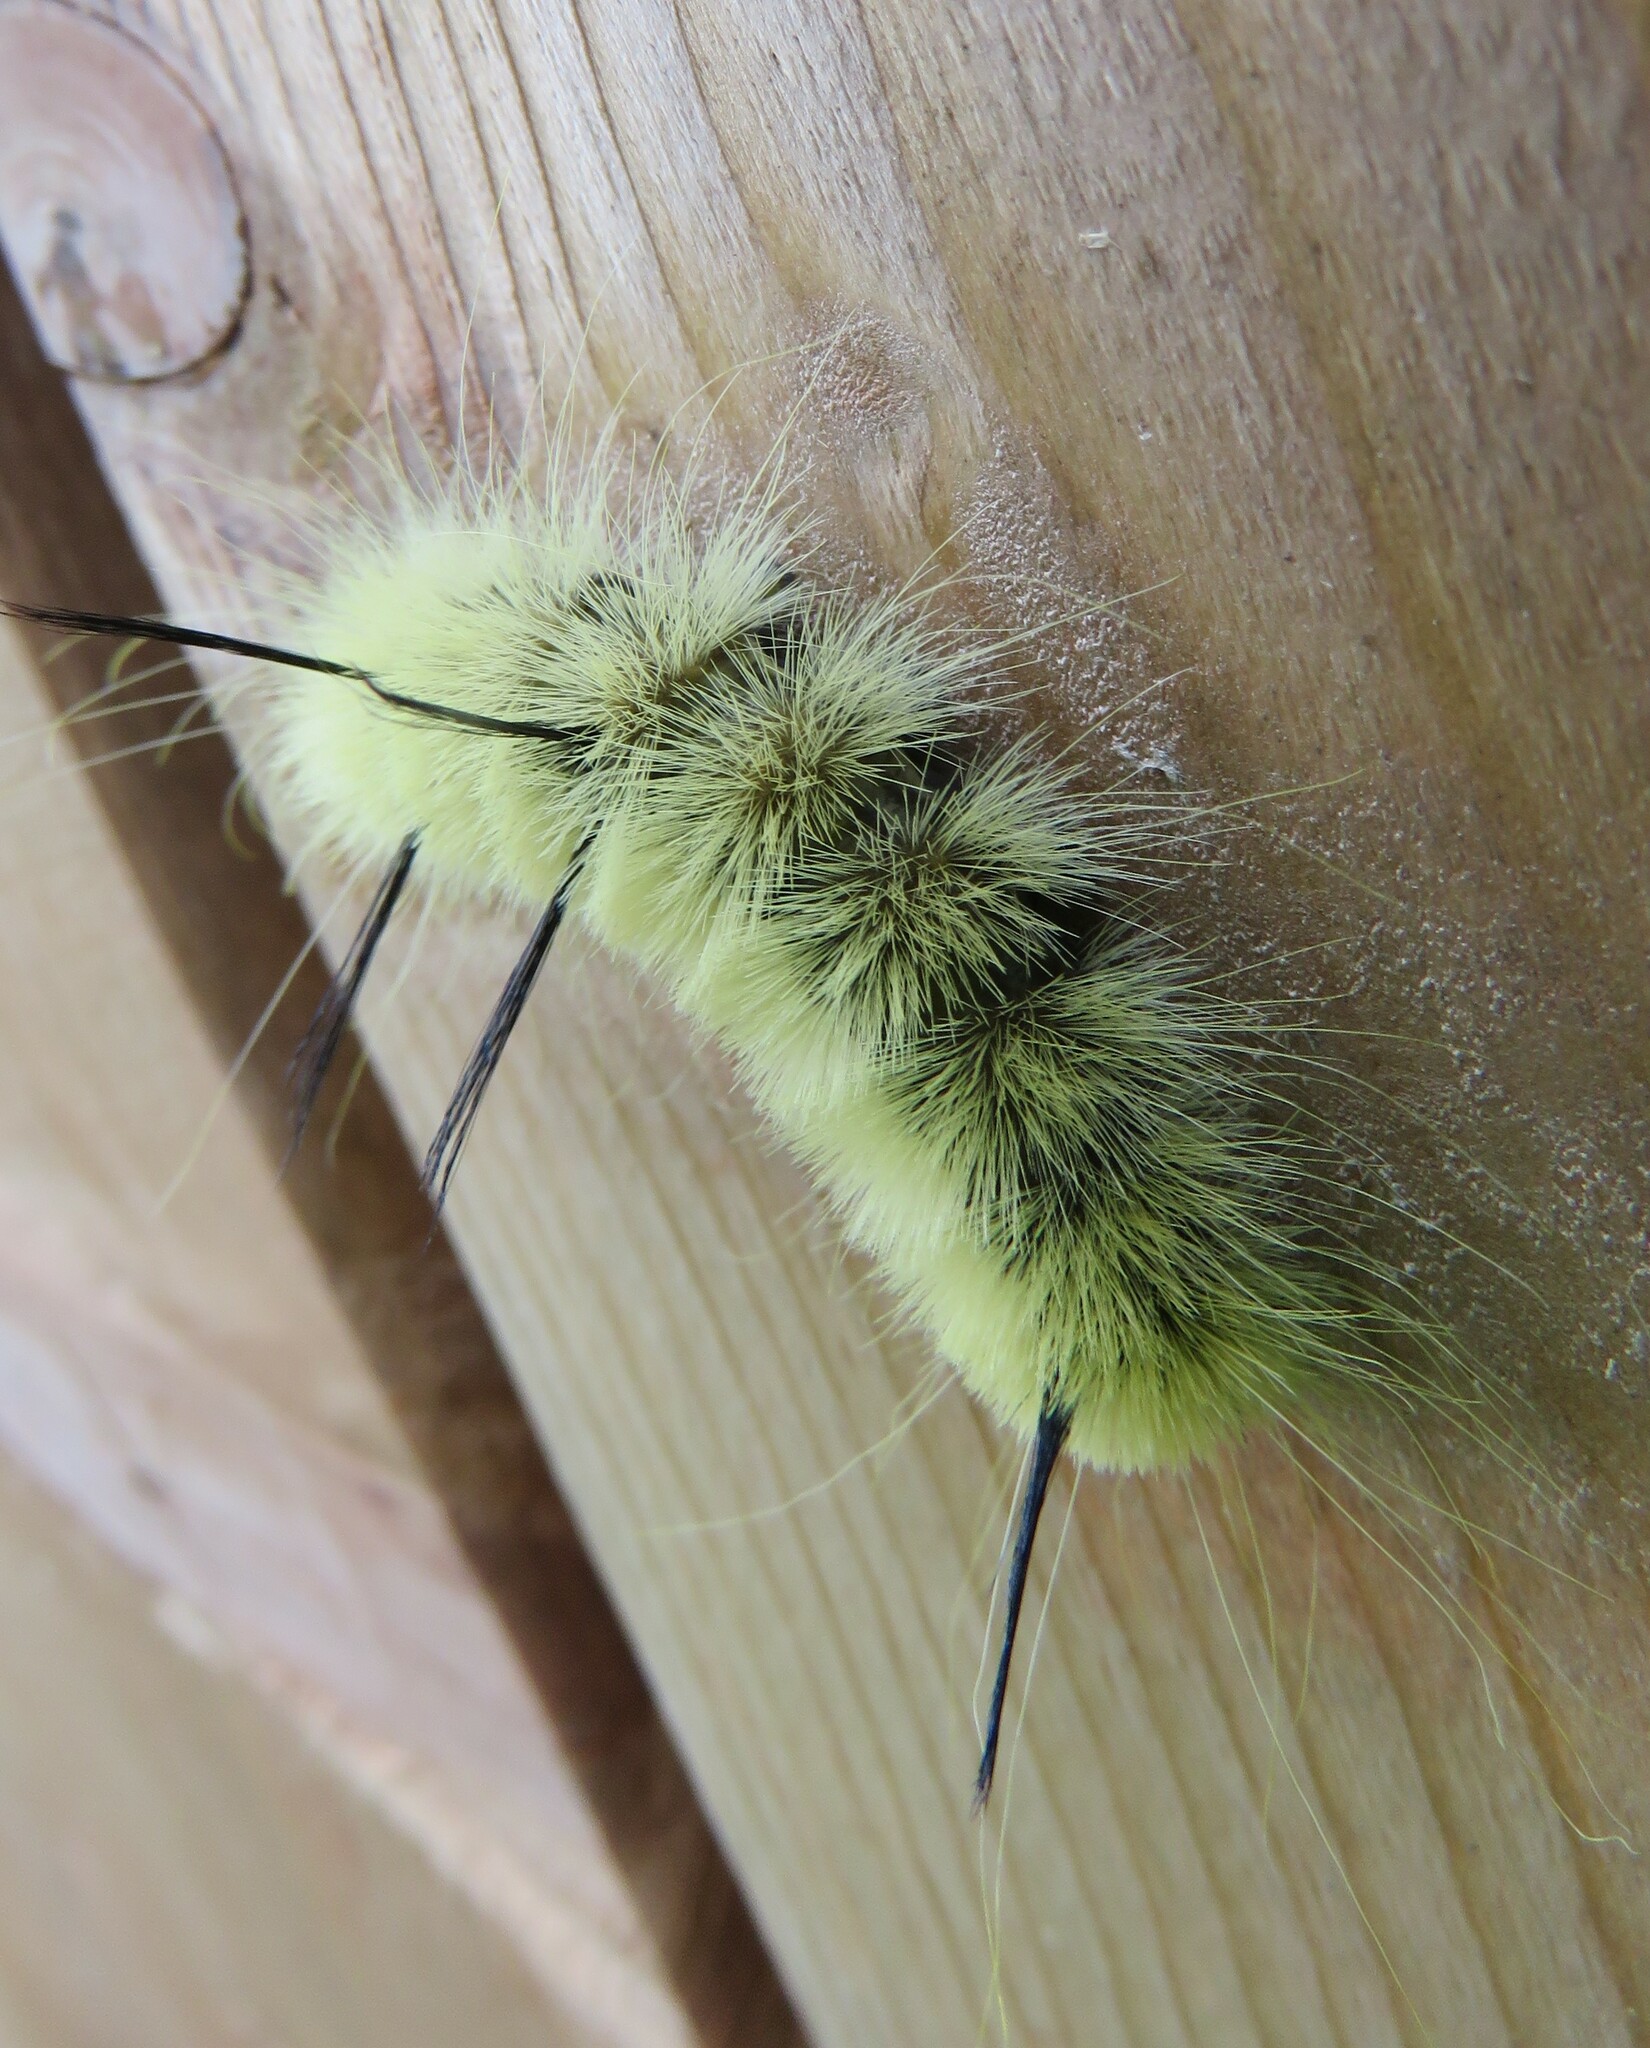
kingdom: Animalia
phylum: Arthropoda
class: Insecta
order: Lepidoptera
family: Noctuidae
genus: Acronicta
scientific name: Acronicta americana
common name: American dagger
